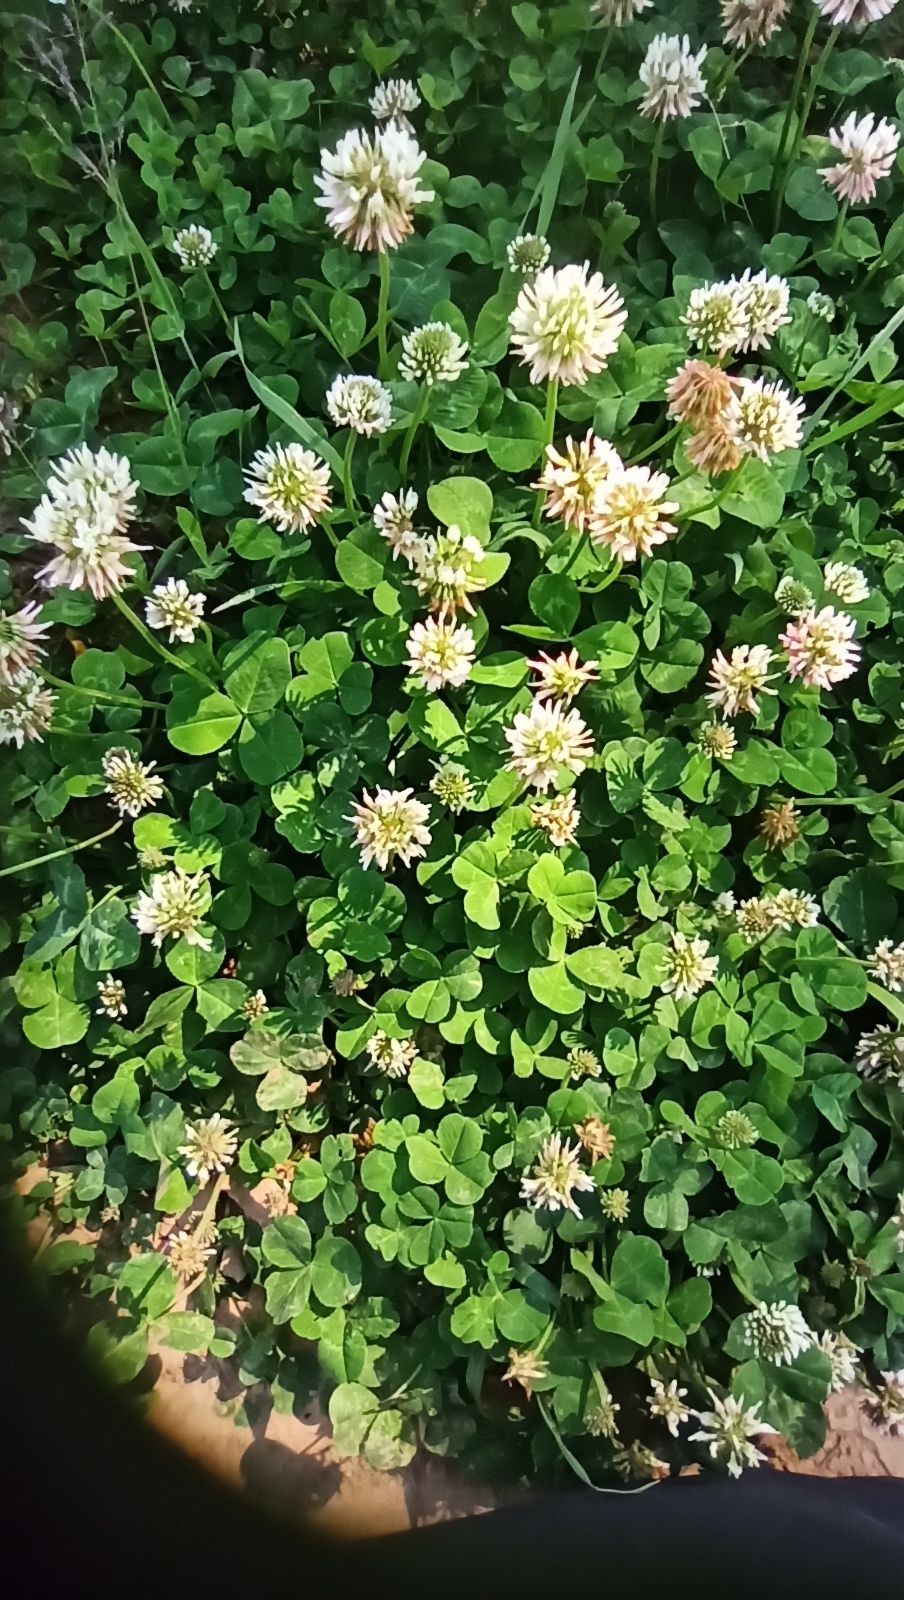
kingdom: Plantae
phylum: Tracheophyta
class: Magnoliopsida
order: Fabales
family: Fabaceae
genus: Trifolium
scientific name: Trifolium repens
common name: White clover
